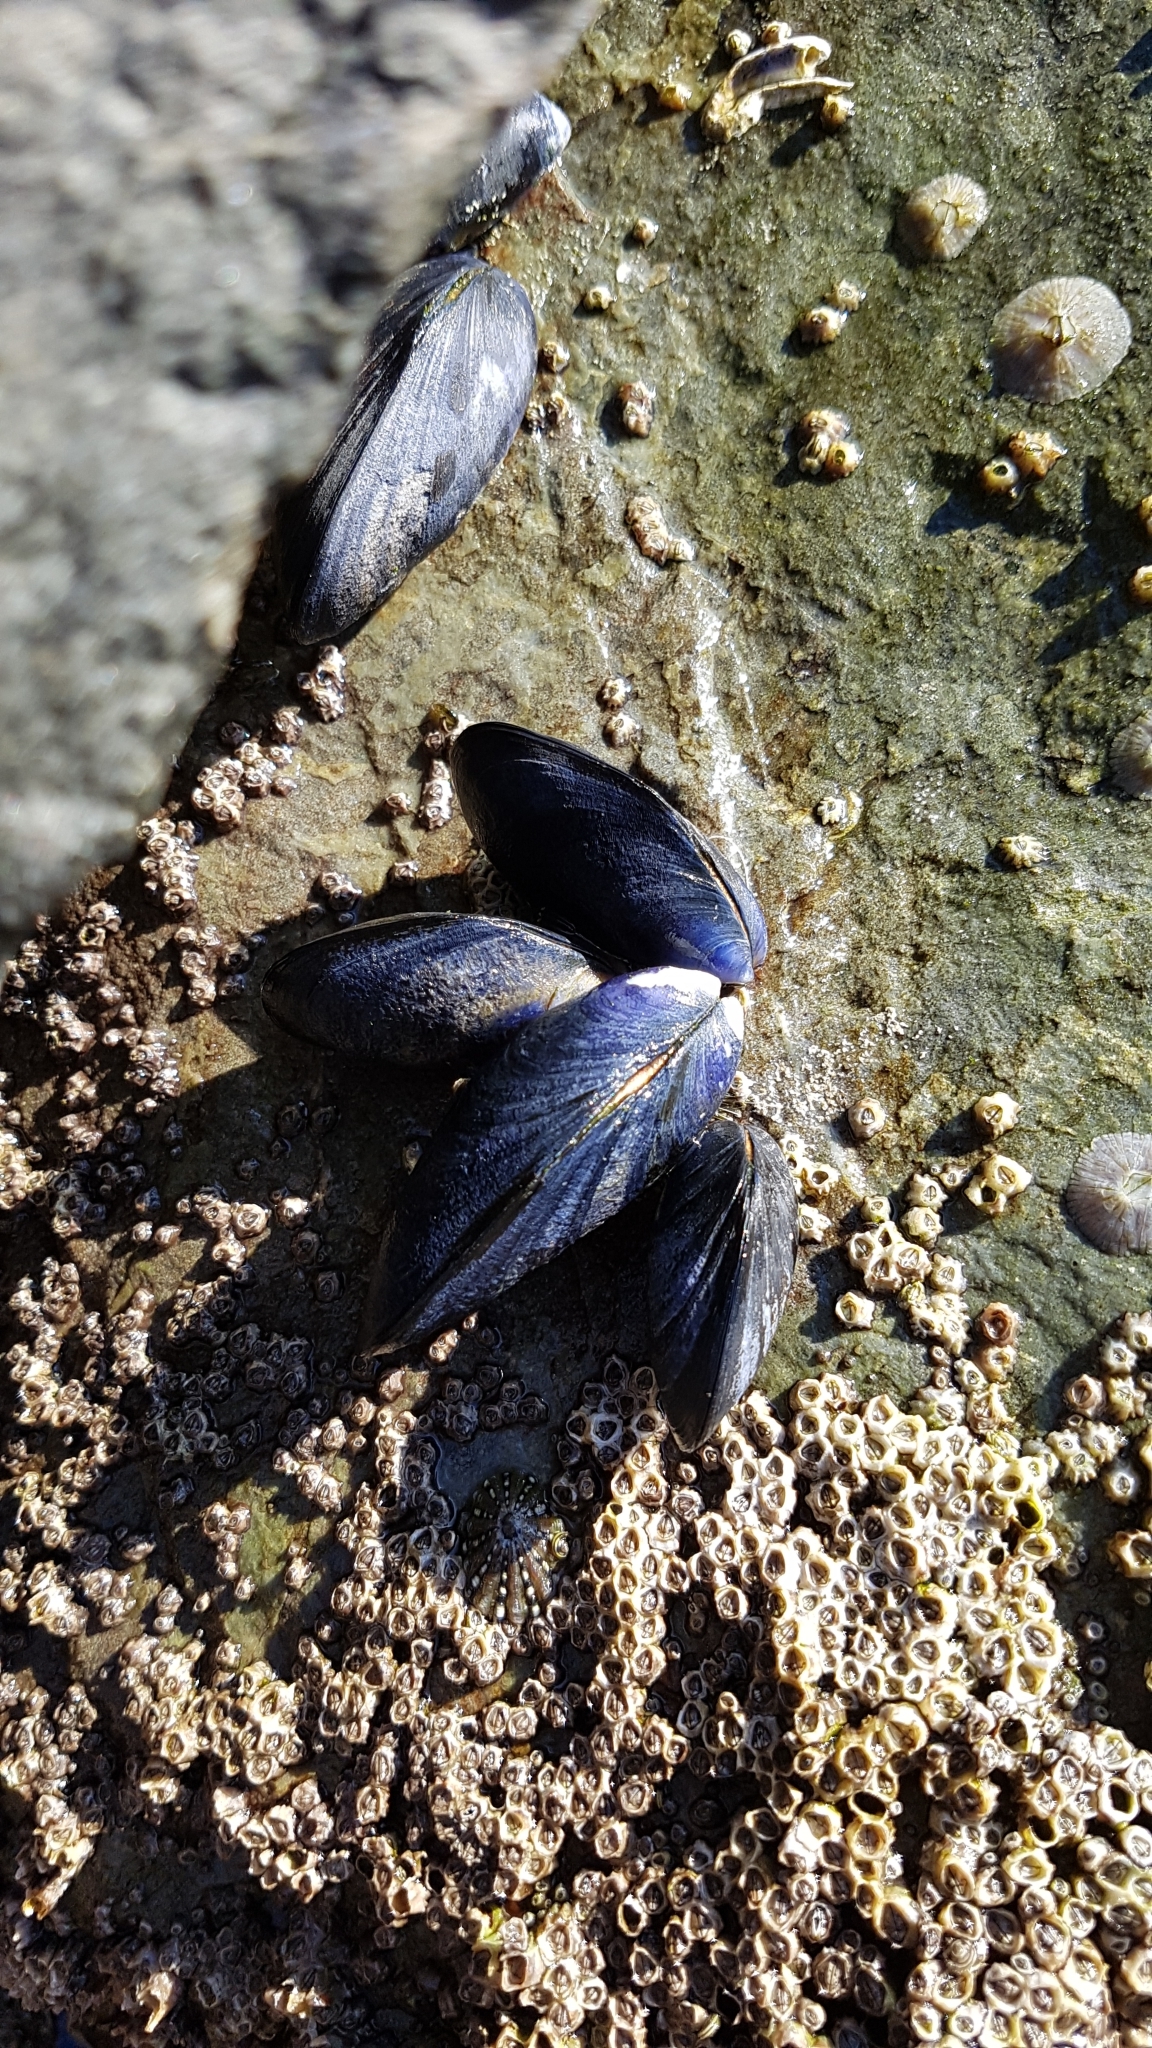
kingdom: Animalia
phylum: Mollusca
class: Bivalvia
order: Mytilida
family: Mytilidae
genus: Mytilus
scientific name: Mytilus planulatus
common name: Australian mussel
